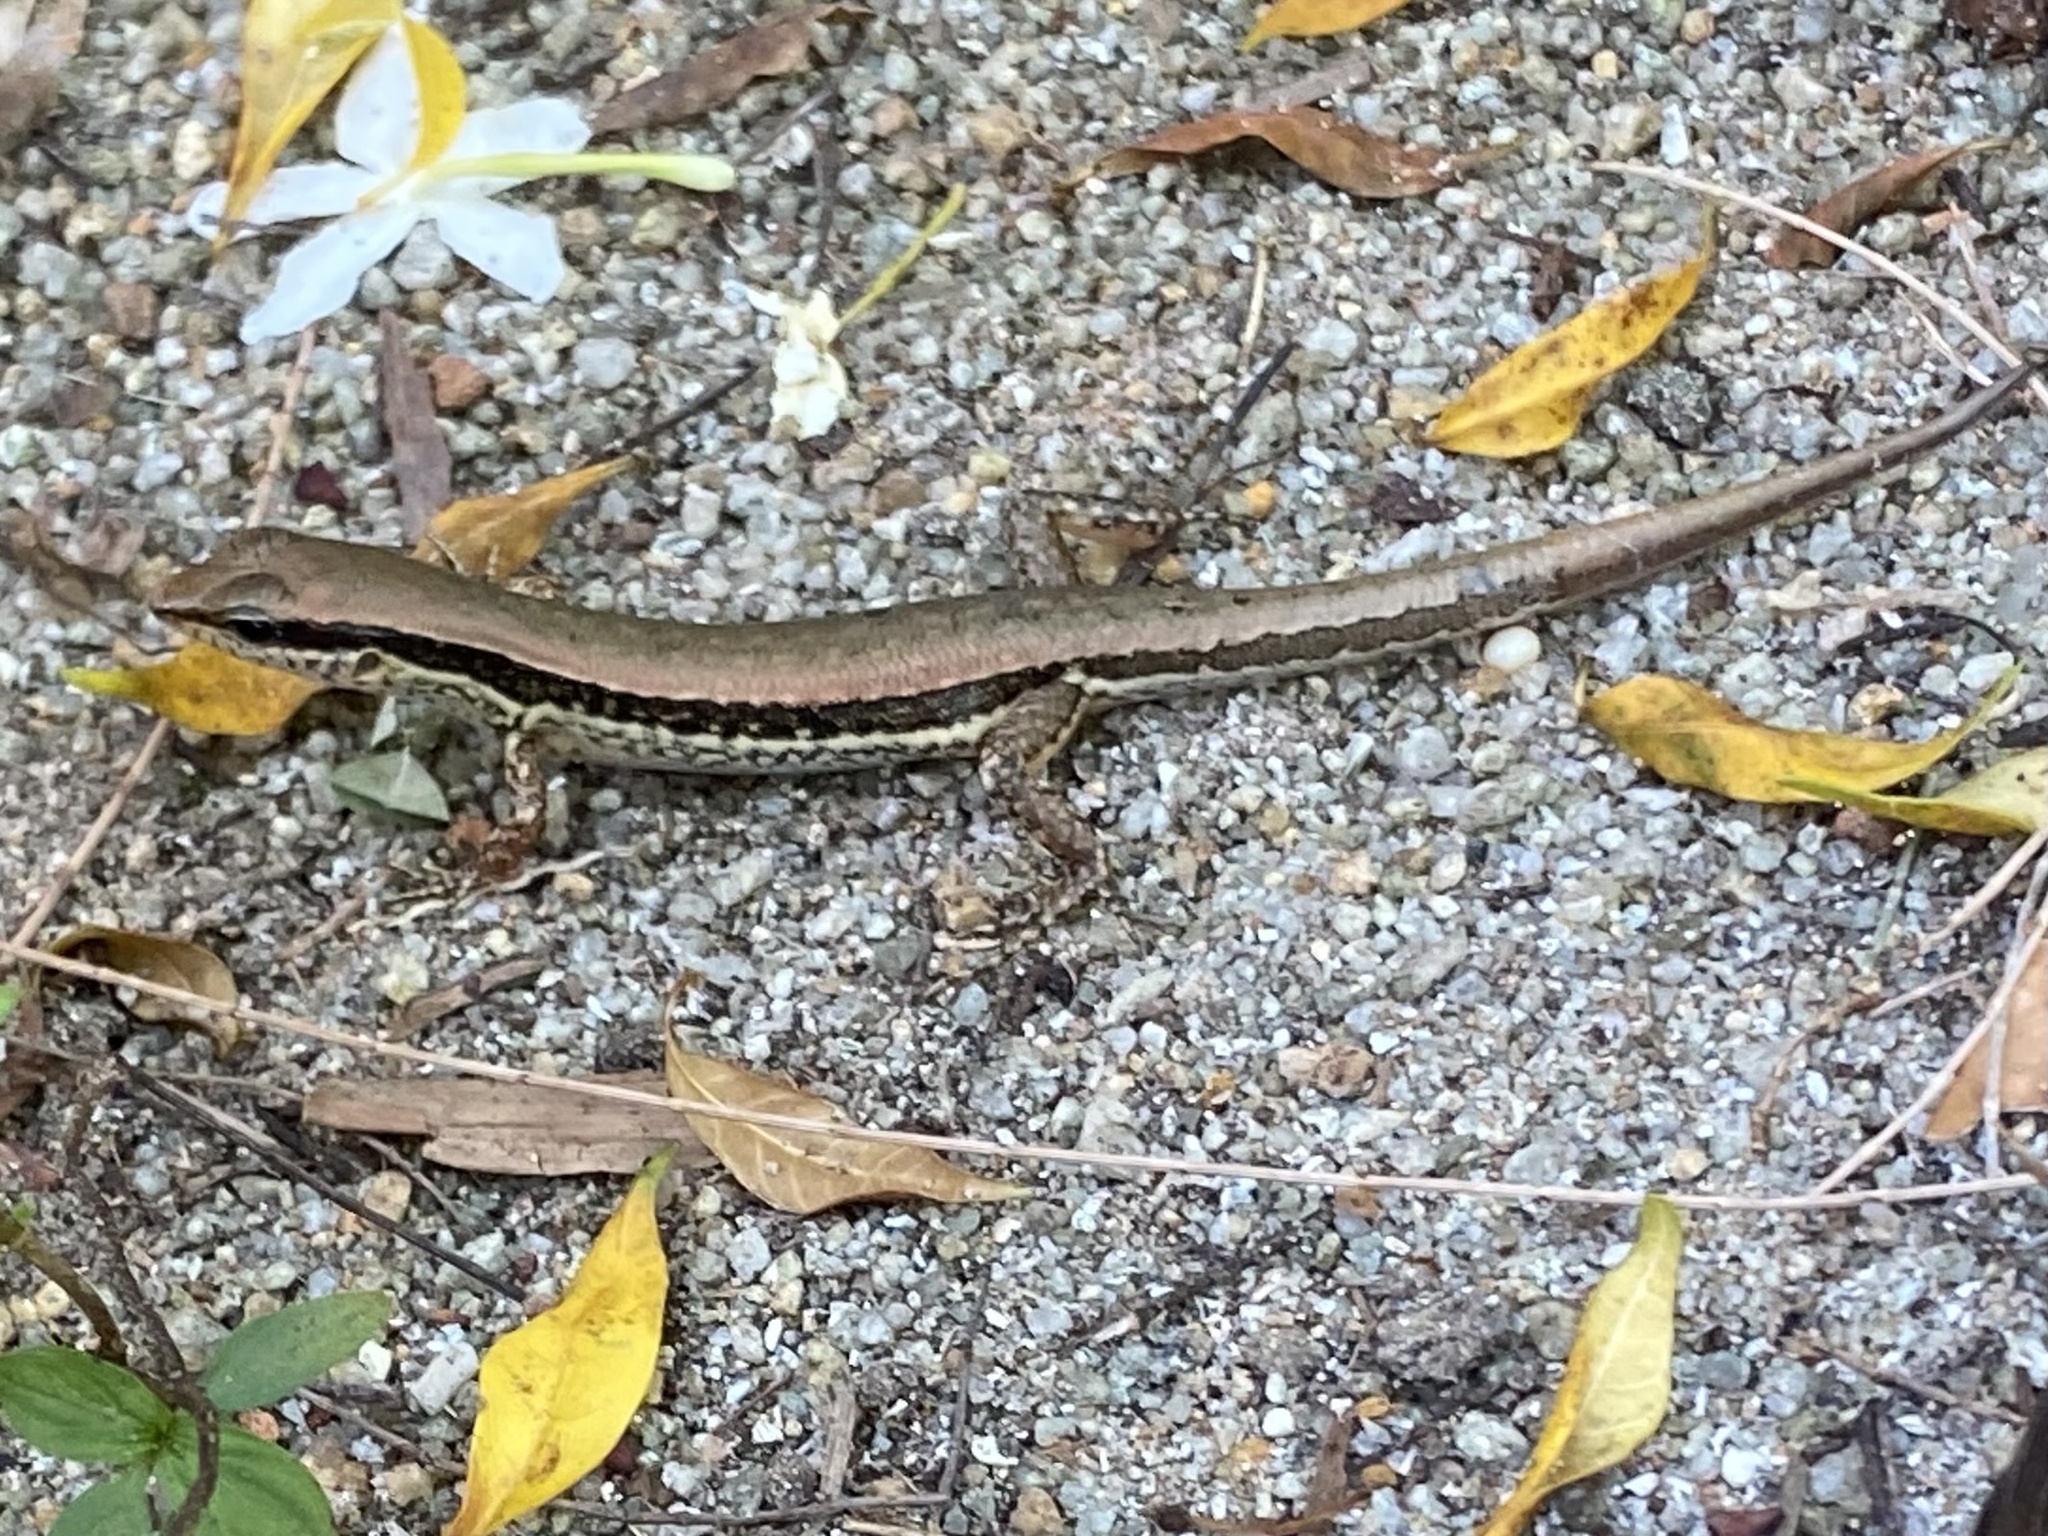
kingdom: Animalia
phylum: Chordata
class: Squamata
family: Scincidae
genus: Sphenomorphus
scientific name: Sphenomorphus maculatus
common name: Maculated forest skink
